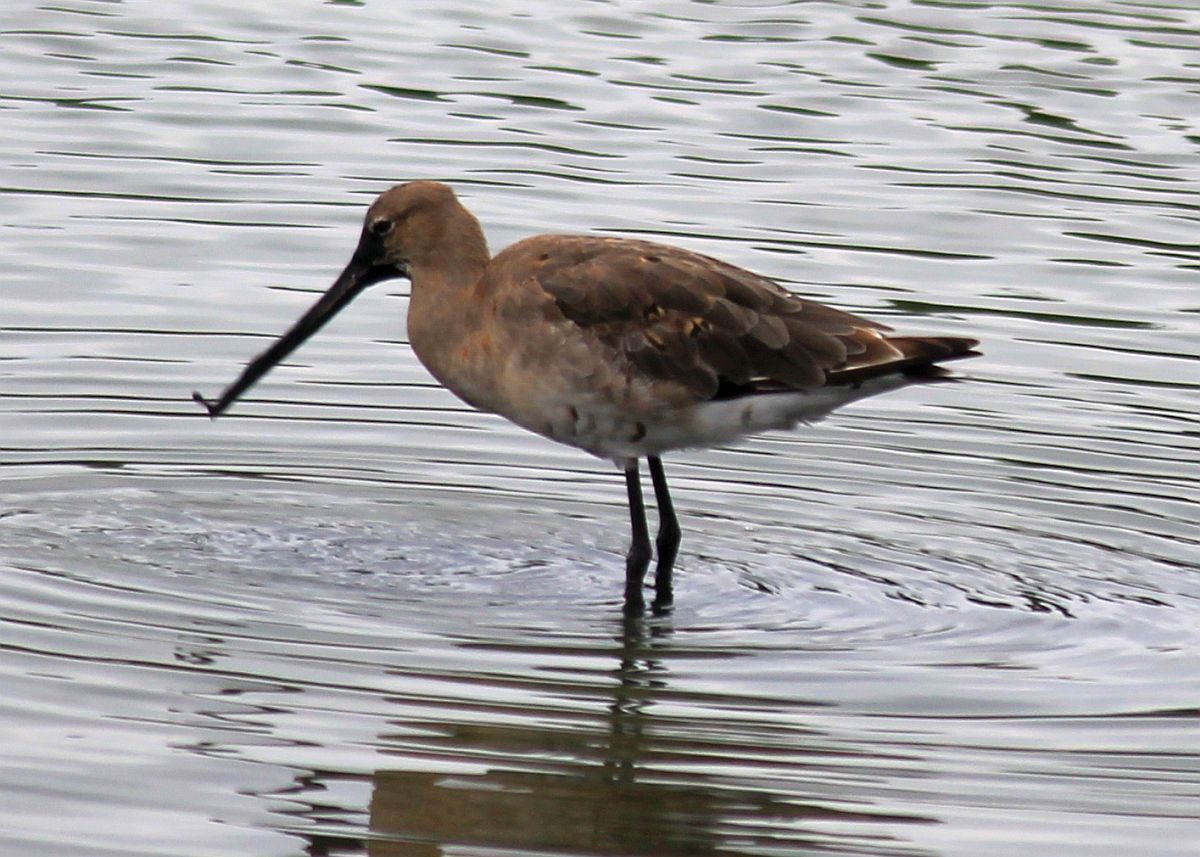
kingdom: Animalia
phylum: Chordata
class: Aves
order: Charadriiformes
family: Scolopacidae
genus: Limosa
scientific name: Limosa limosa
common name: Black-tailed godwit
